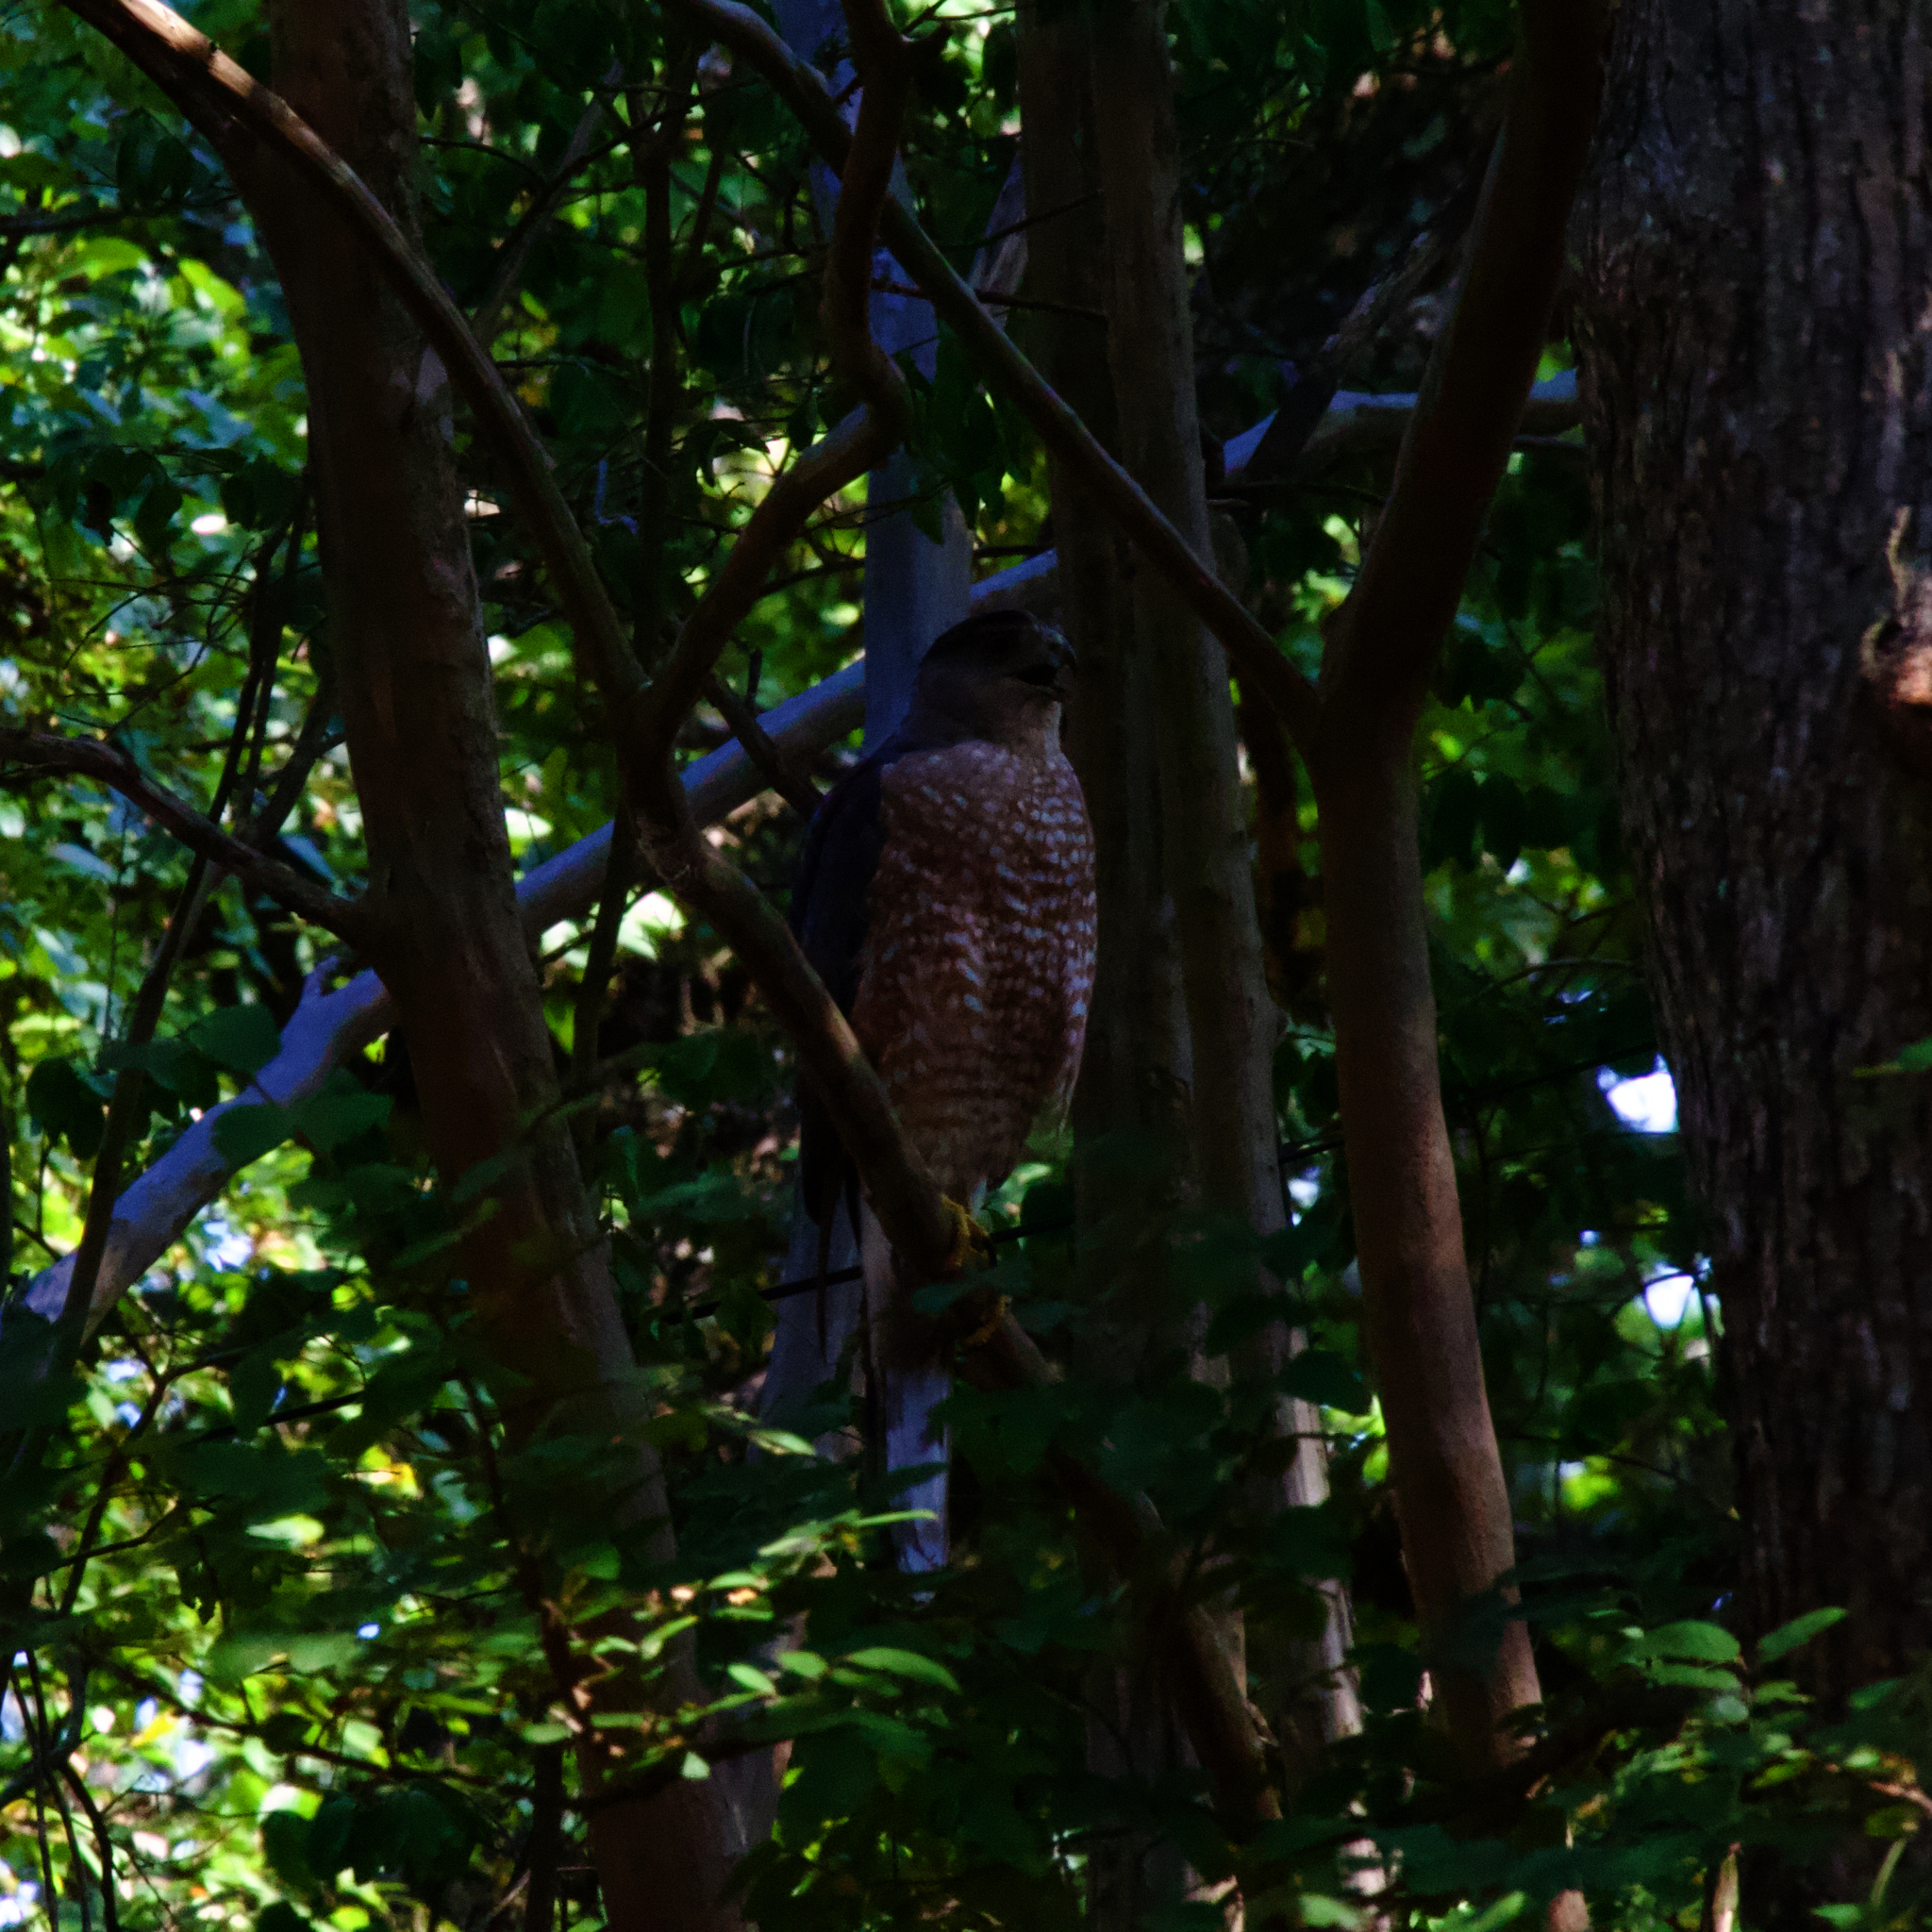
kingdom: Animalia
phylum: Chordata
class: Aves
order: Accipitriformes
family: Accipitridae
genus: Accipiter
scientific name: Accipiter cooperii
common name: Cooper's hawk
